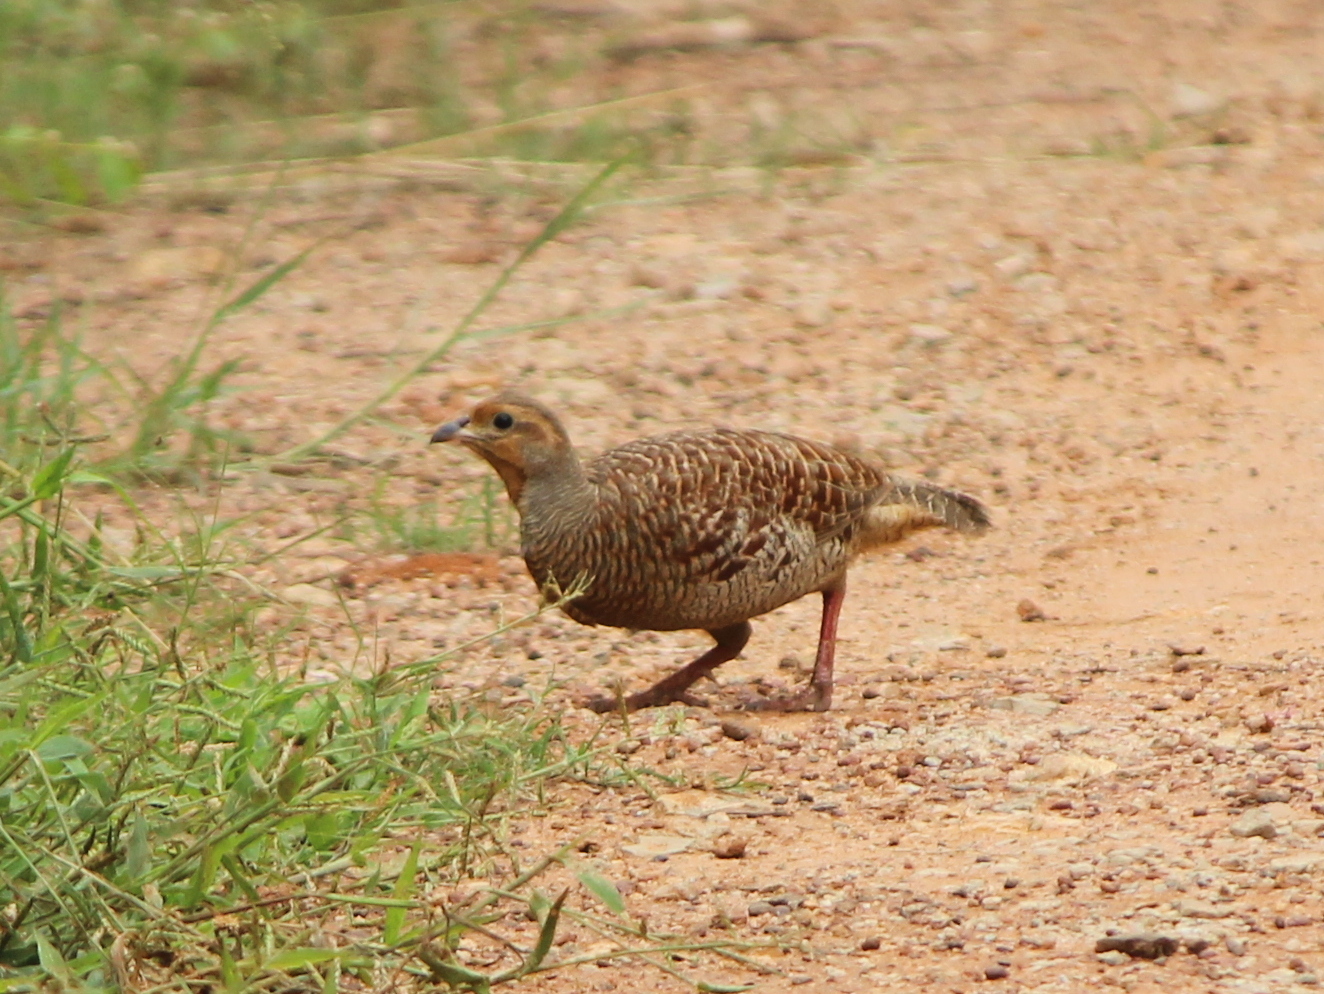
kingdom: Animalia
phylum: Chordata
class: Aves
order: Galliformes
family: Phasianidae
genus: Ortygornis
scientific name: Ortygornis pondicerianus
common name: Grey francolin
